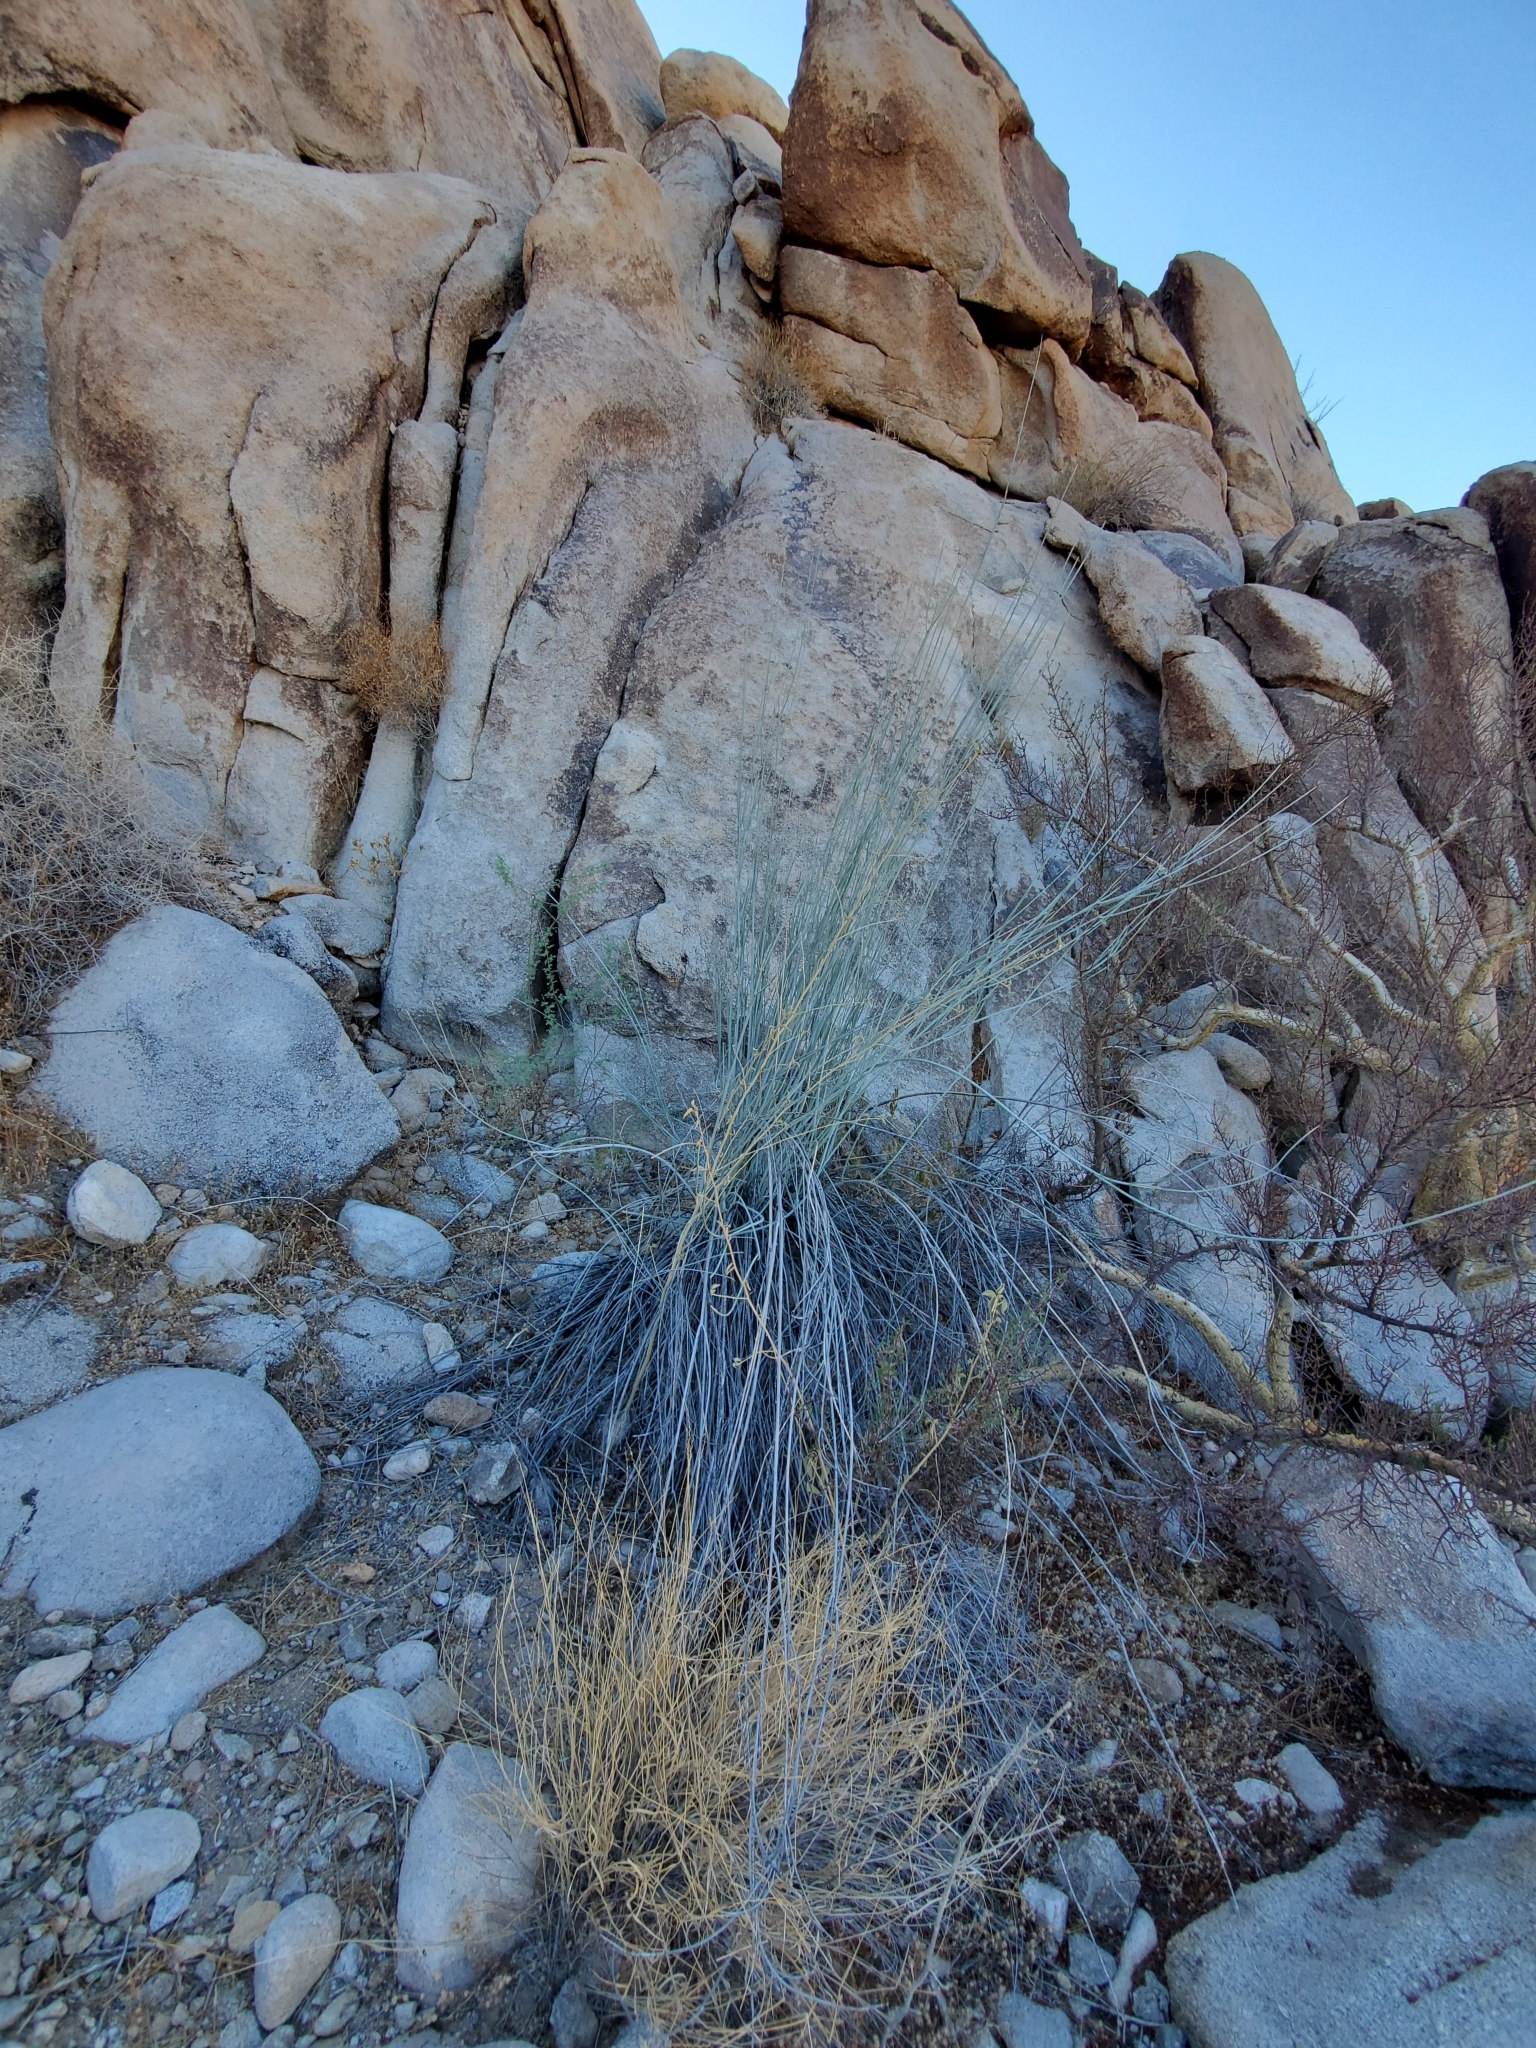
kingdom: Plantae
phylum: Tracheophyta
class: Magnoliopsida
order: Gentianales
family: Apocynaceae
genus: Asclepias
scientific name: Asclepias subulata
